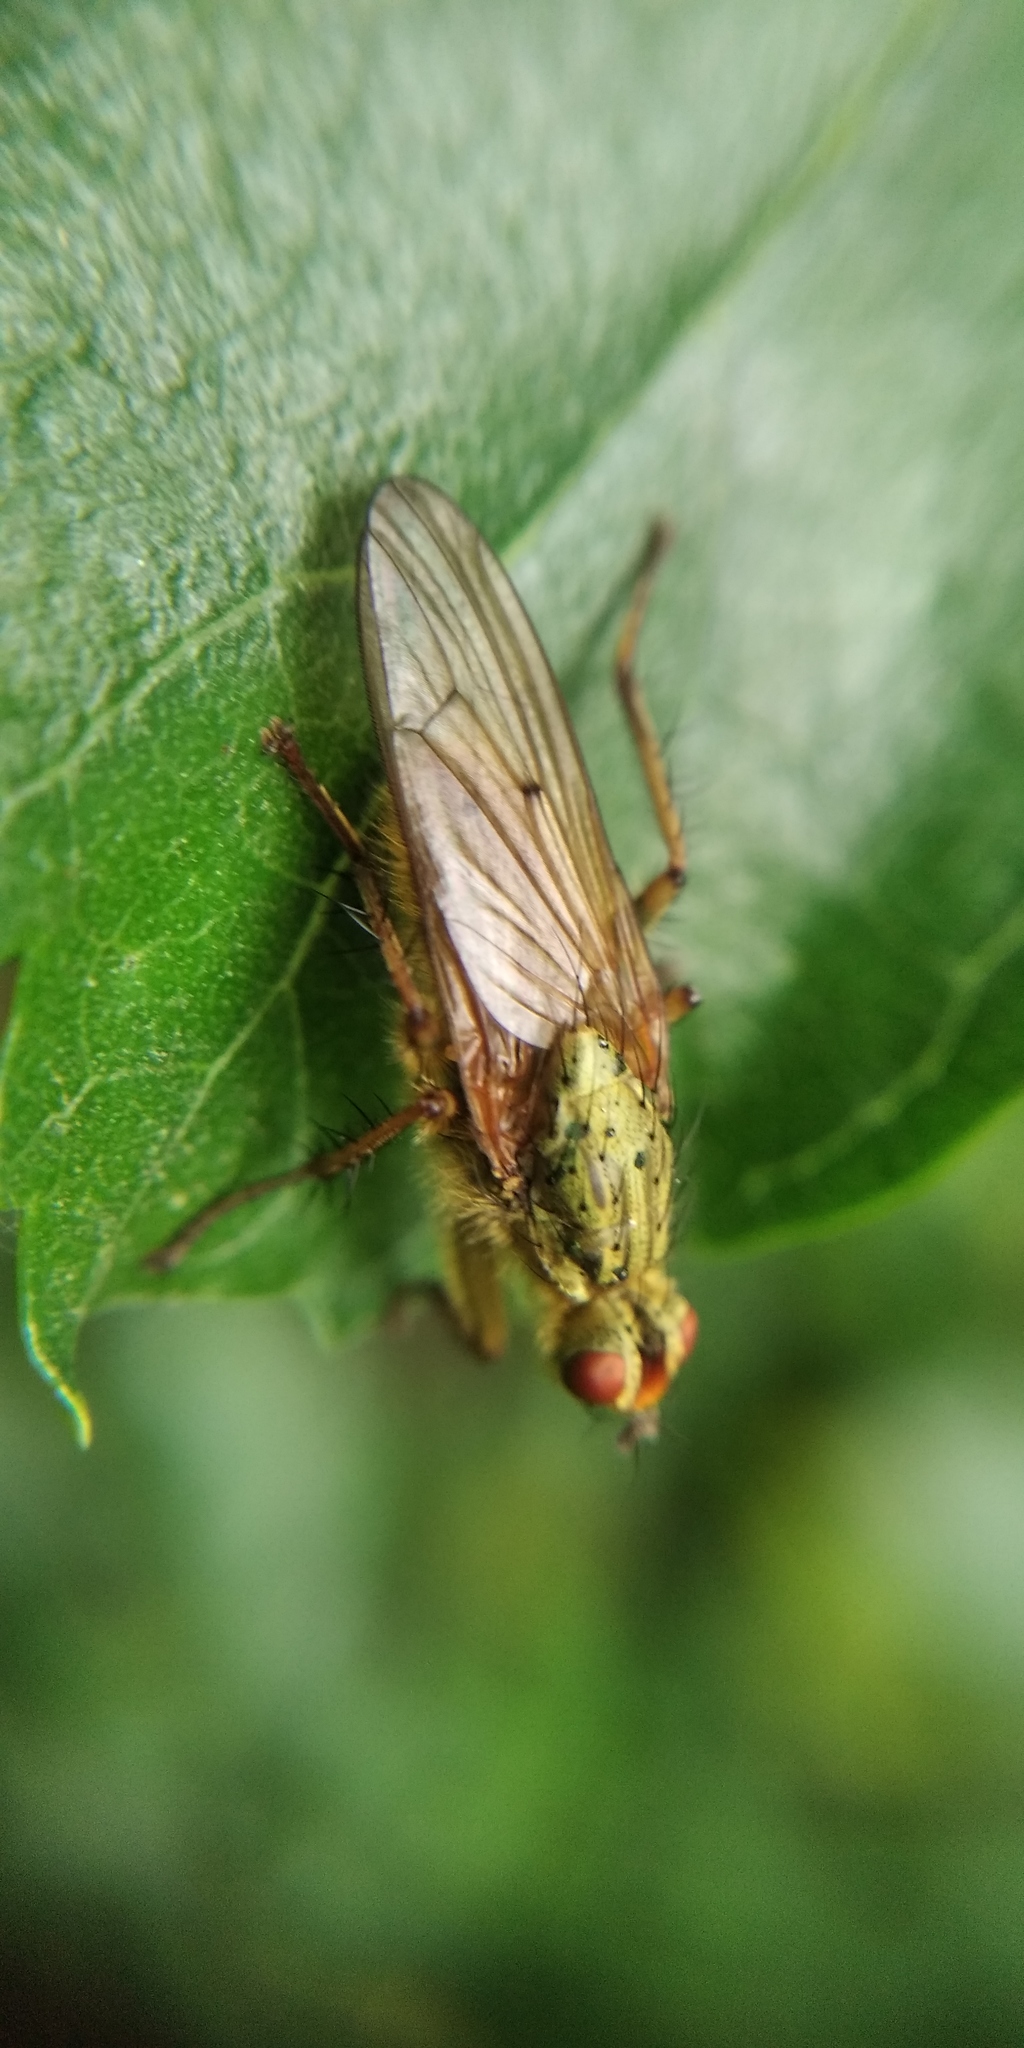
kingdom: Animalia
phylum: Arthropoda
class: Insecta
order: Diptera
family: Scathophagidae
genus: Scathophaga
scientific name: Scathophaga stercoraria
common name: Yellow dung fly
